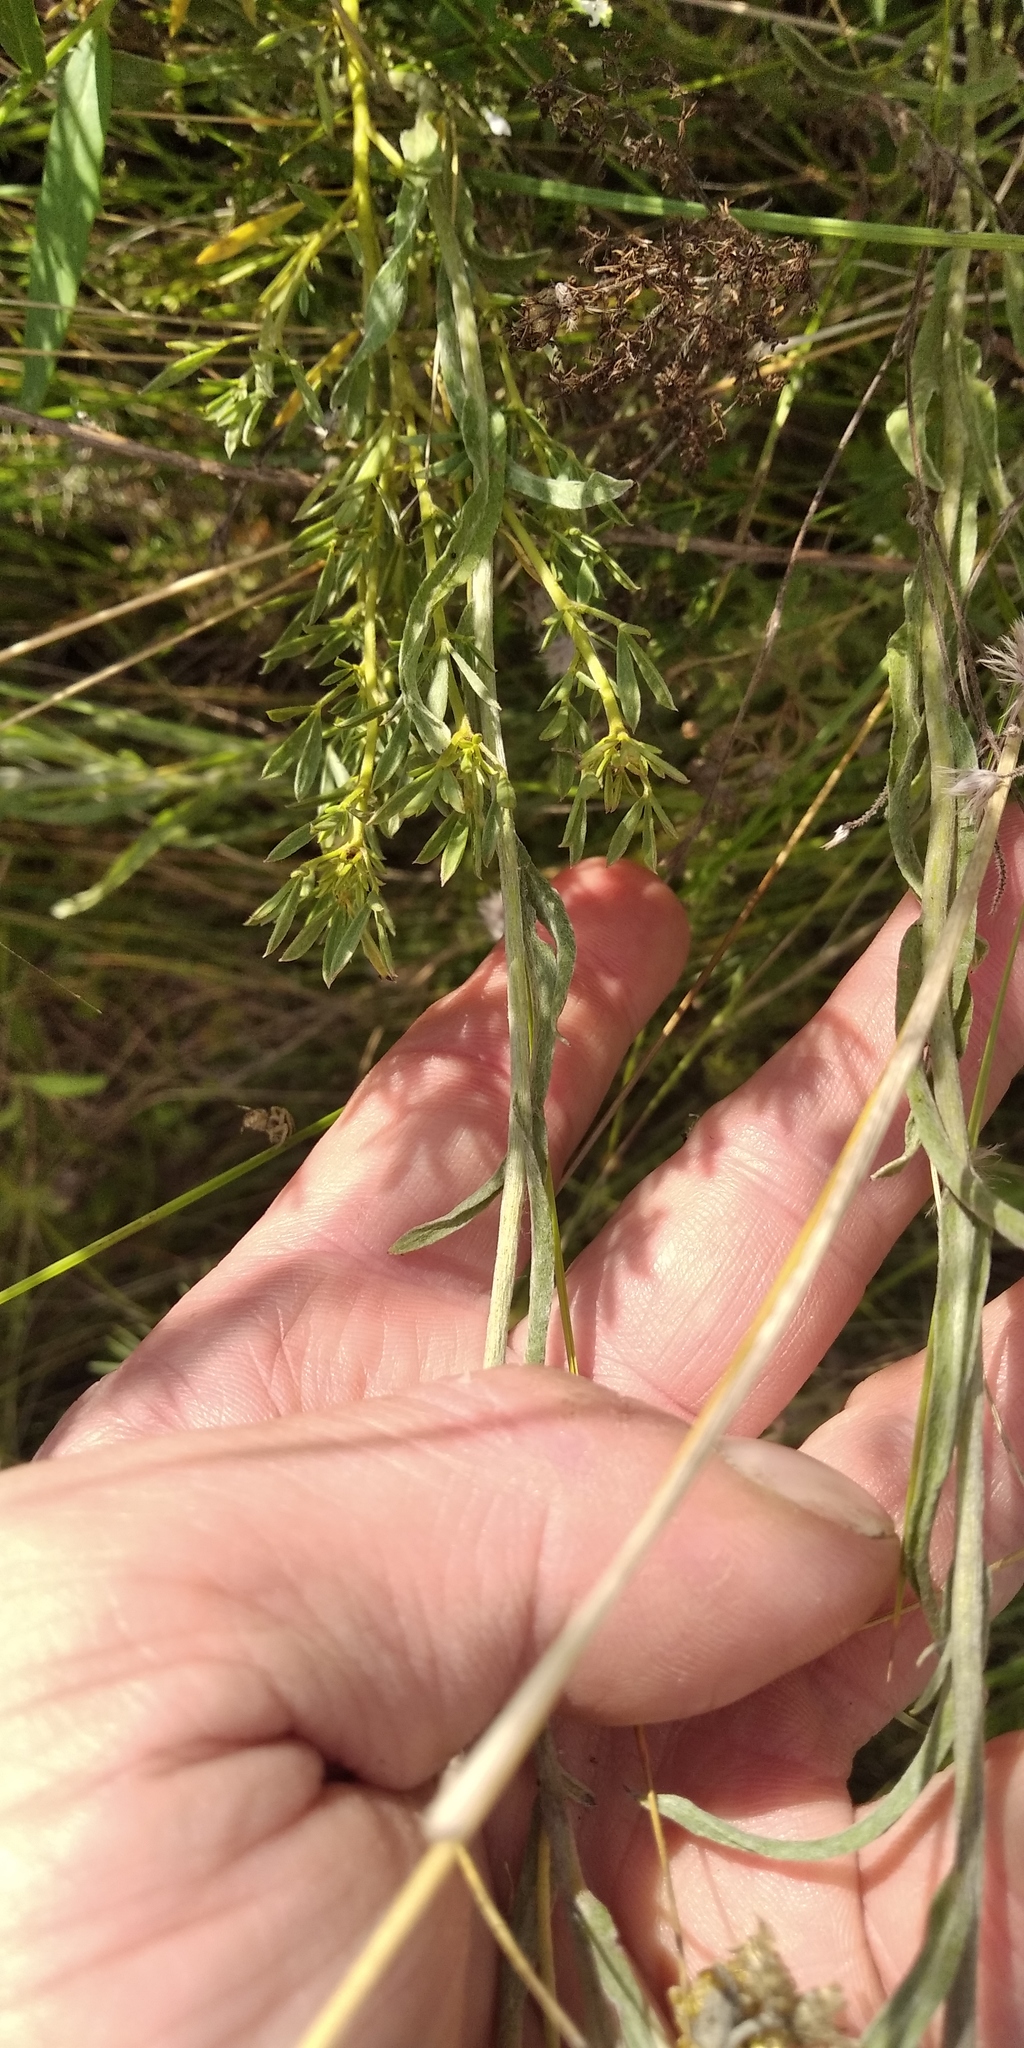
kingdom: Plantae
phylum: Tracheophyta
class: Magnoliopsida
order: Asterales
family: Asteraceae
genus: Helichrysum
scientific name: Helichrysum arenarium
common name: Strawflower
